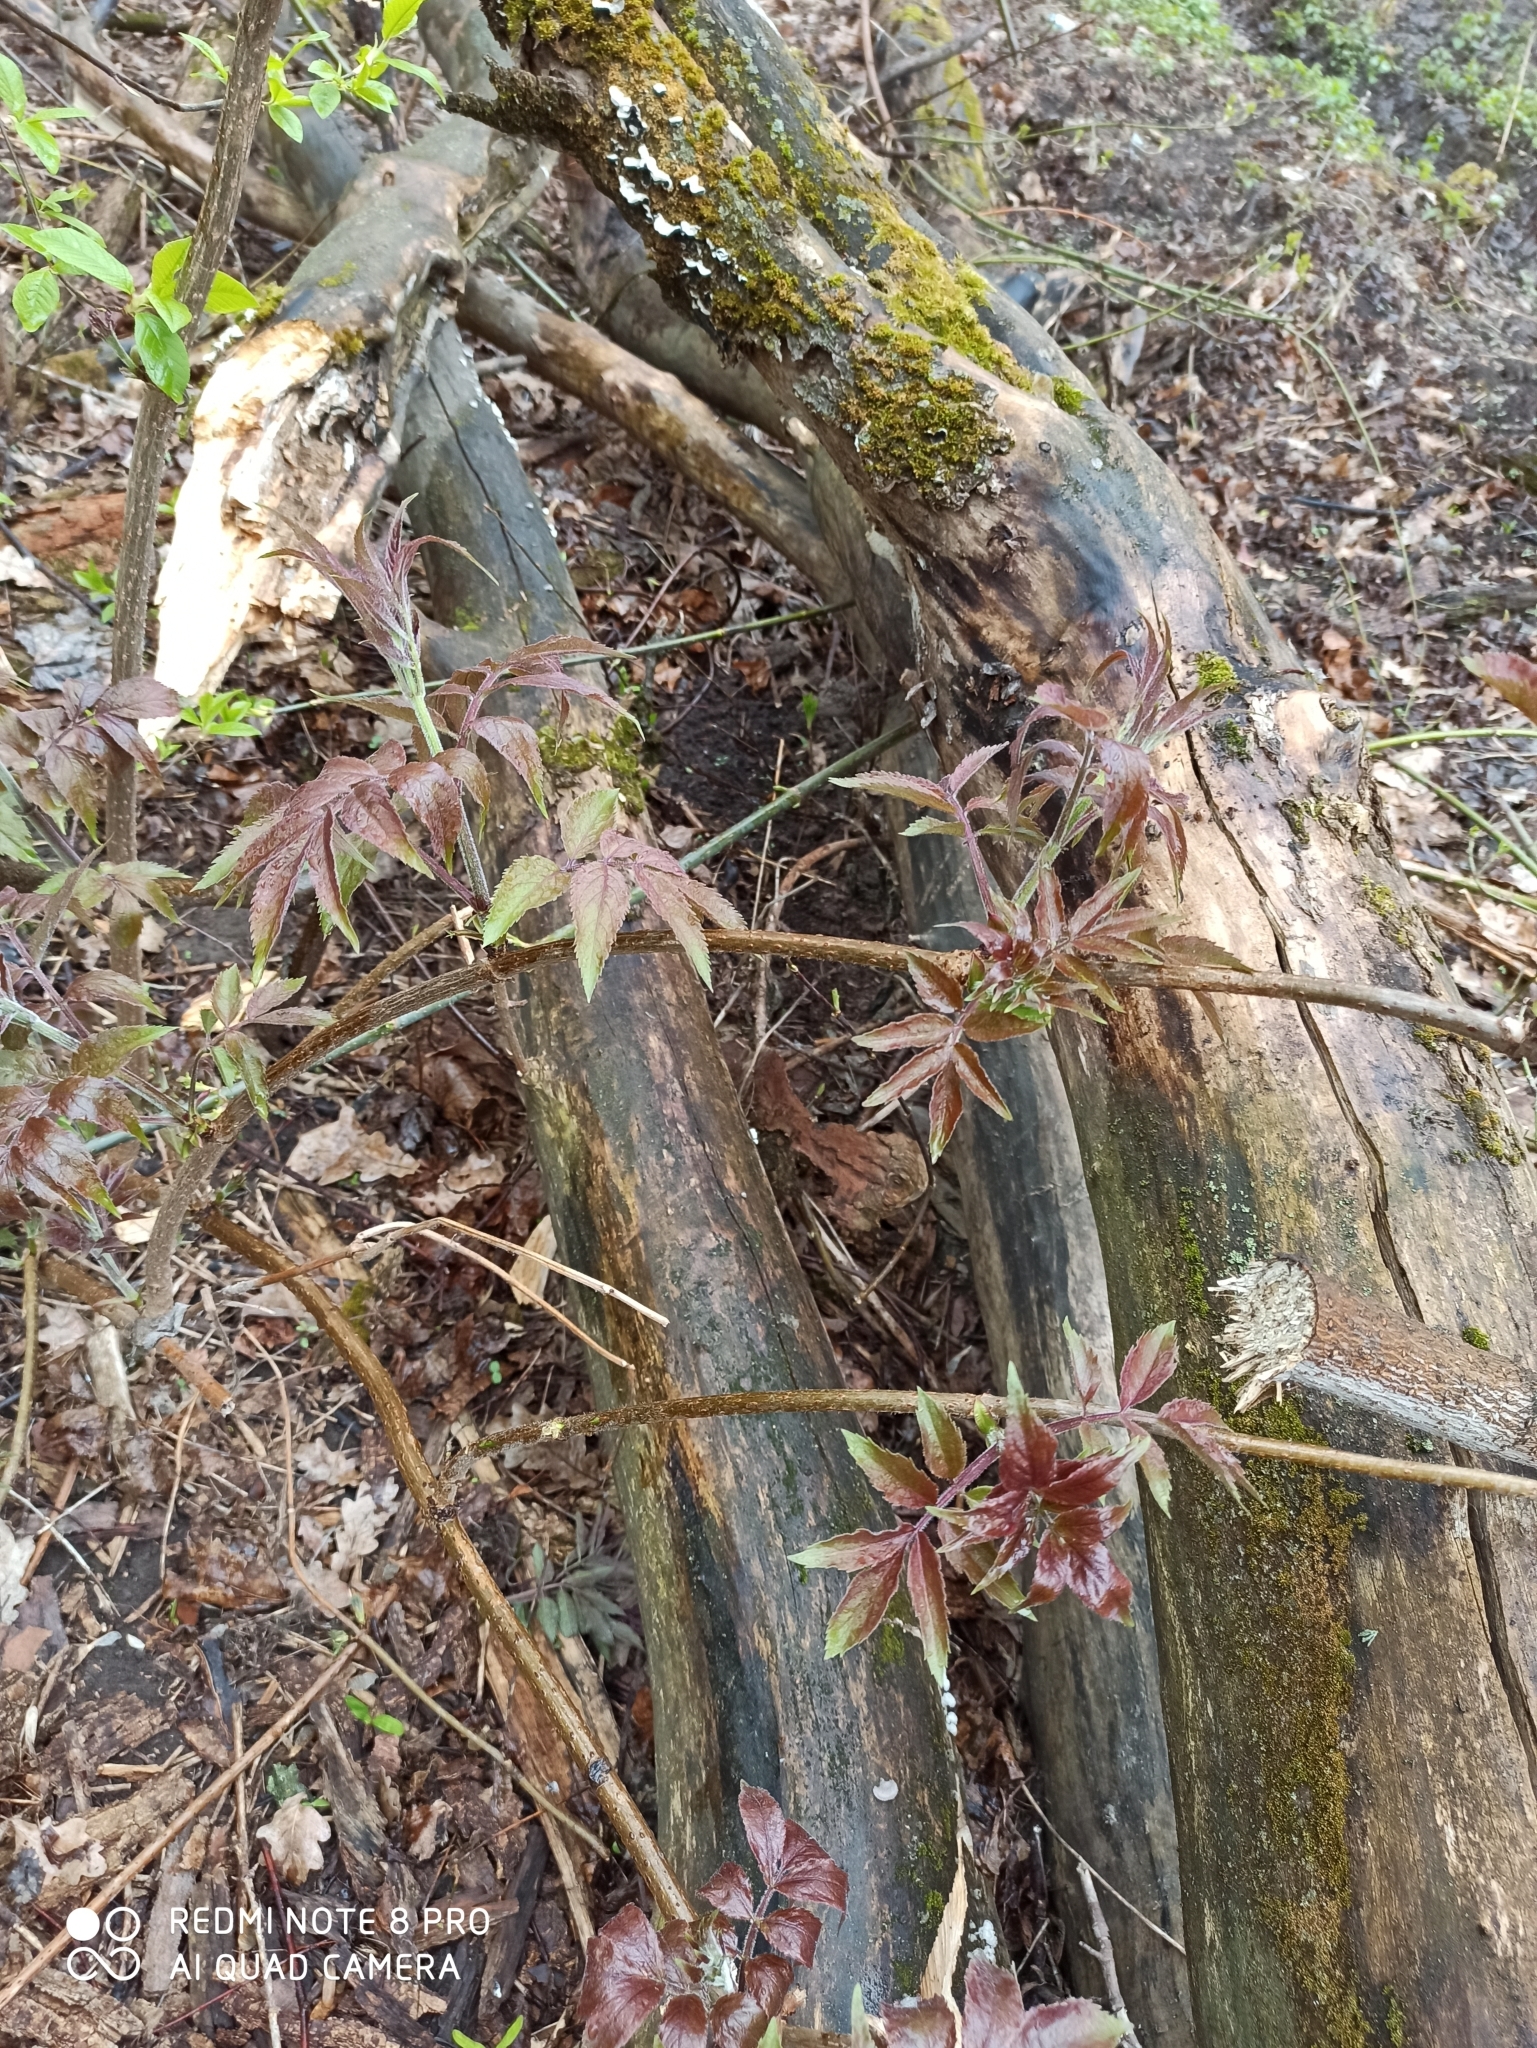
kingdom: Plantae
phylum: Tracheophyta
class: Magnoliopsida
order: Dipsacales
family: Viburnaceae
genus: Sambucus
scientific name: Sambucus racemosa
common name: Red-berried elder
